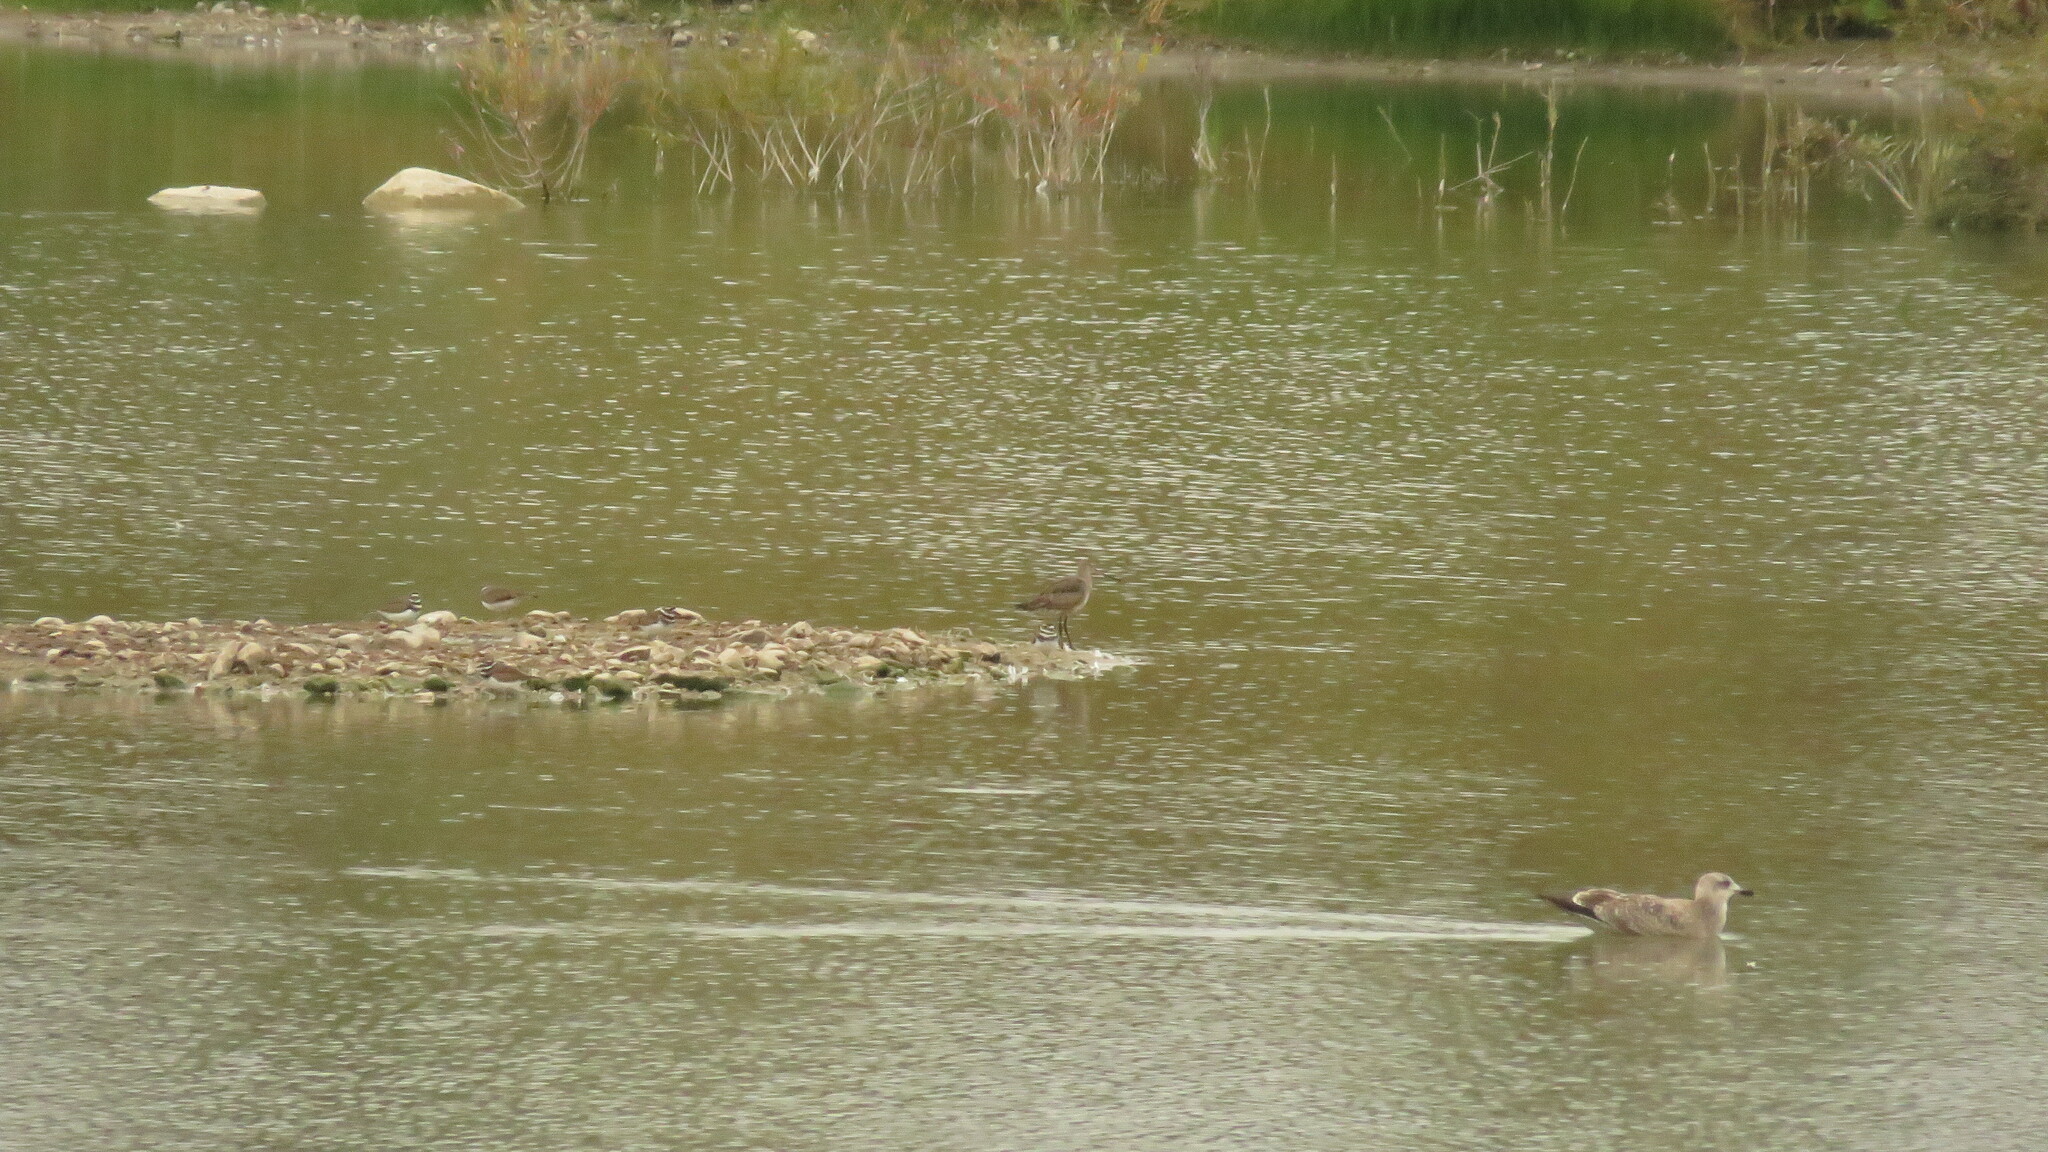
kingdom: Animalia
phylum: Chordata
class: Aves
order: Charadriiformes
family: Scolopacidae
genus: Limosa
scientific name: Limosa haemastica
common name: Hudsonian godwit
